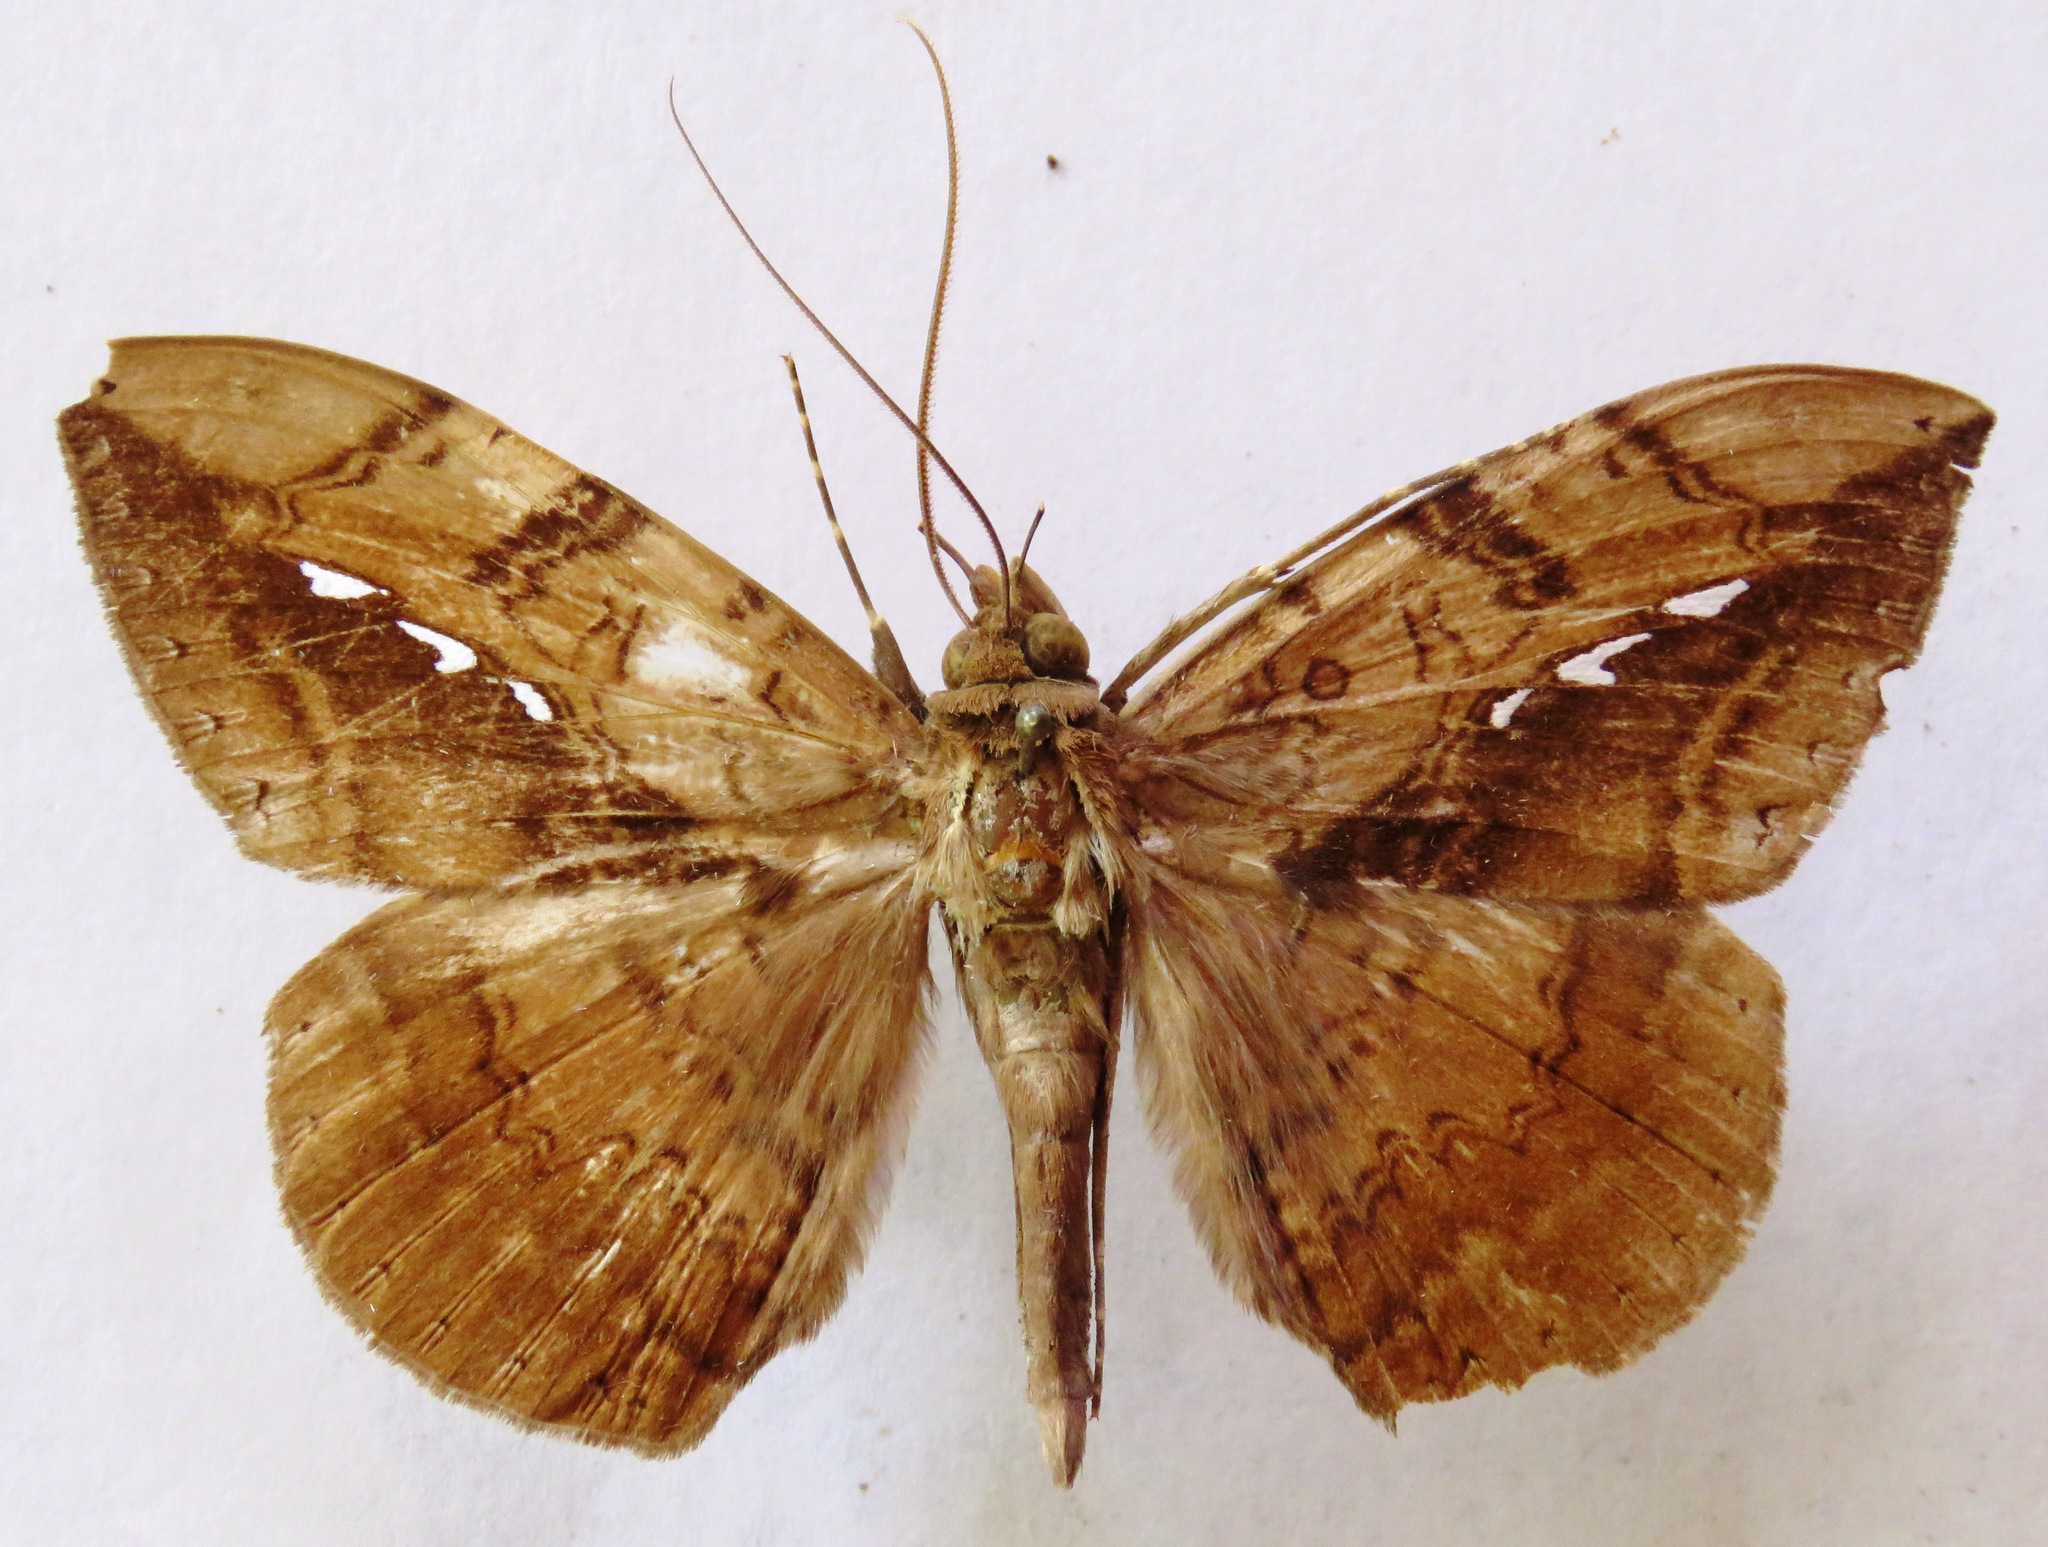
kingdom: Animalia
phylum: Arthropoda
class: Insecta
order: Lepidoptera
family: Erebidae
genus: Hemeroblemma
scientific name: Hemeroblemma acron
